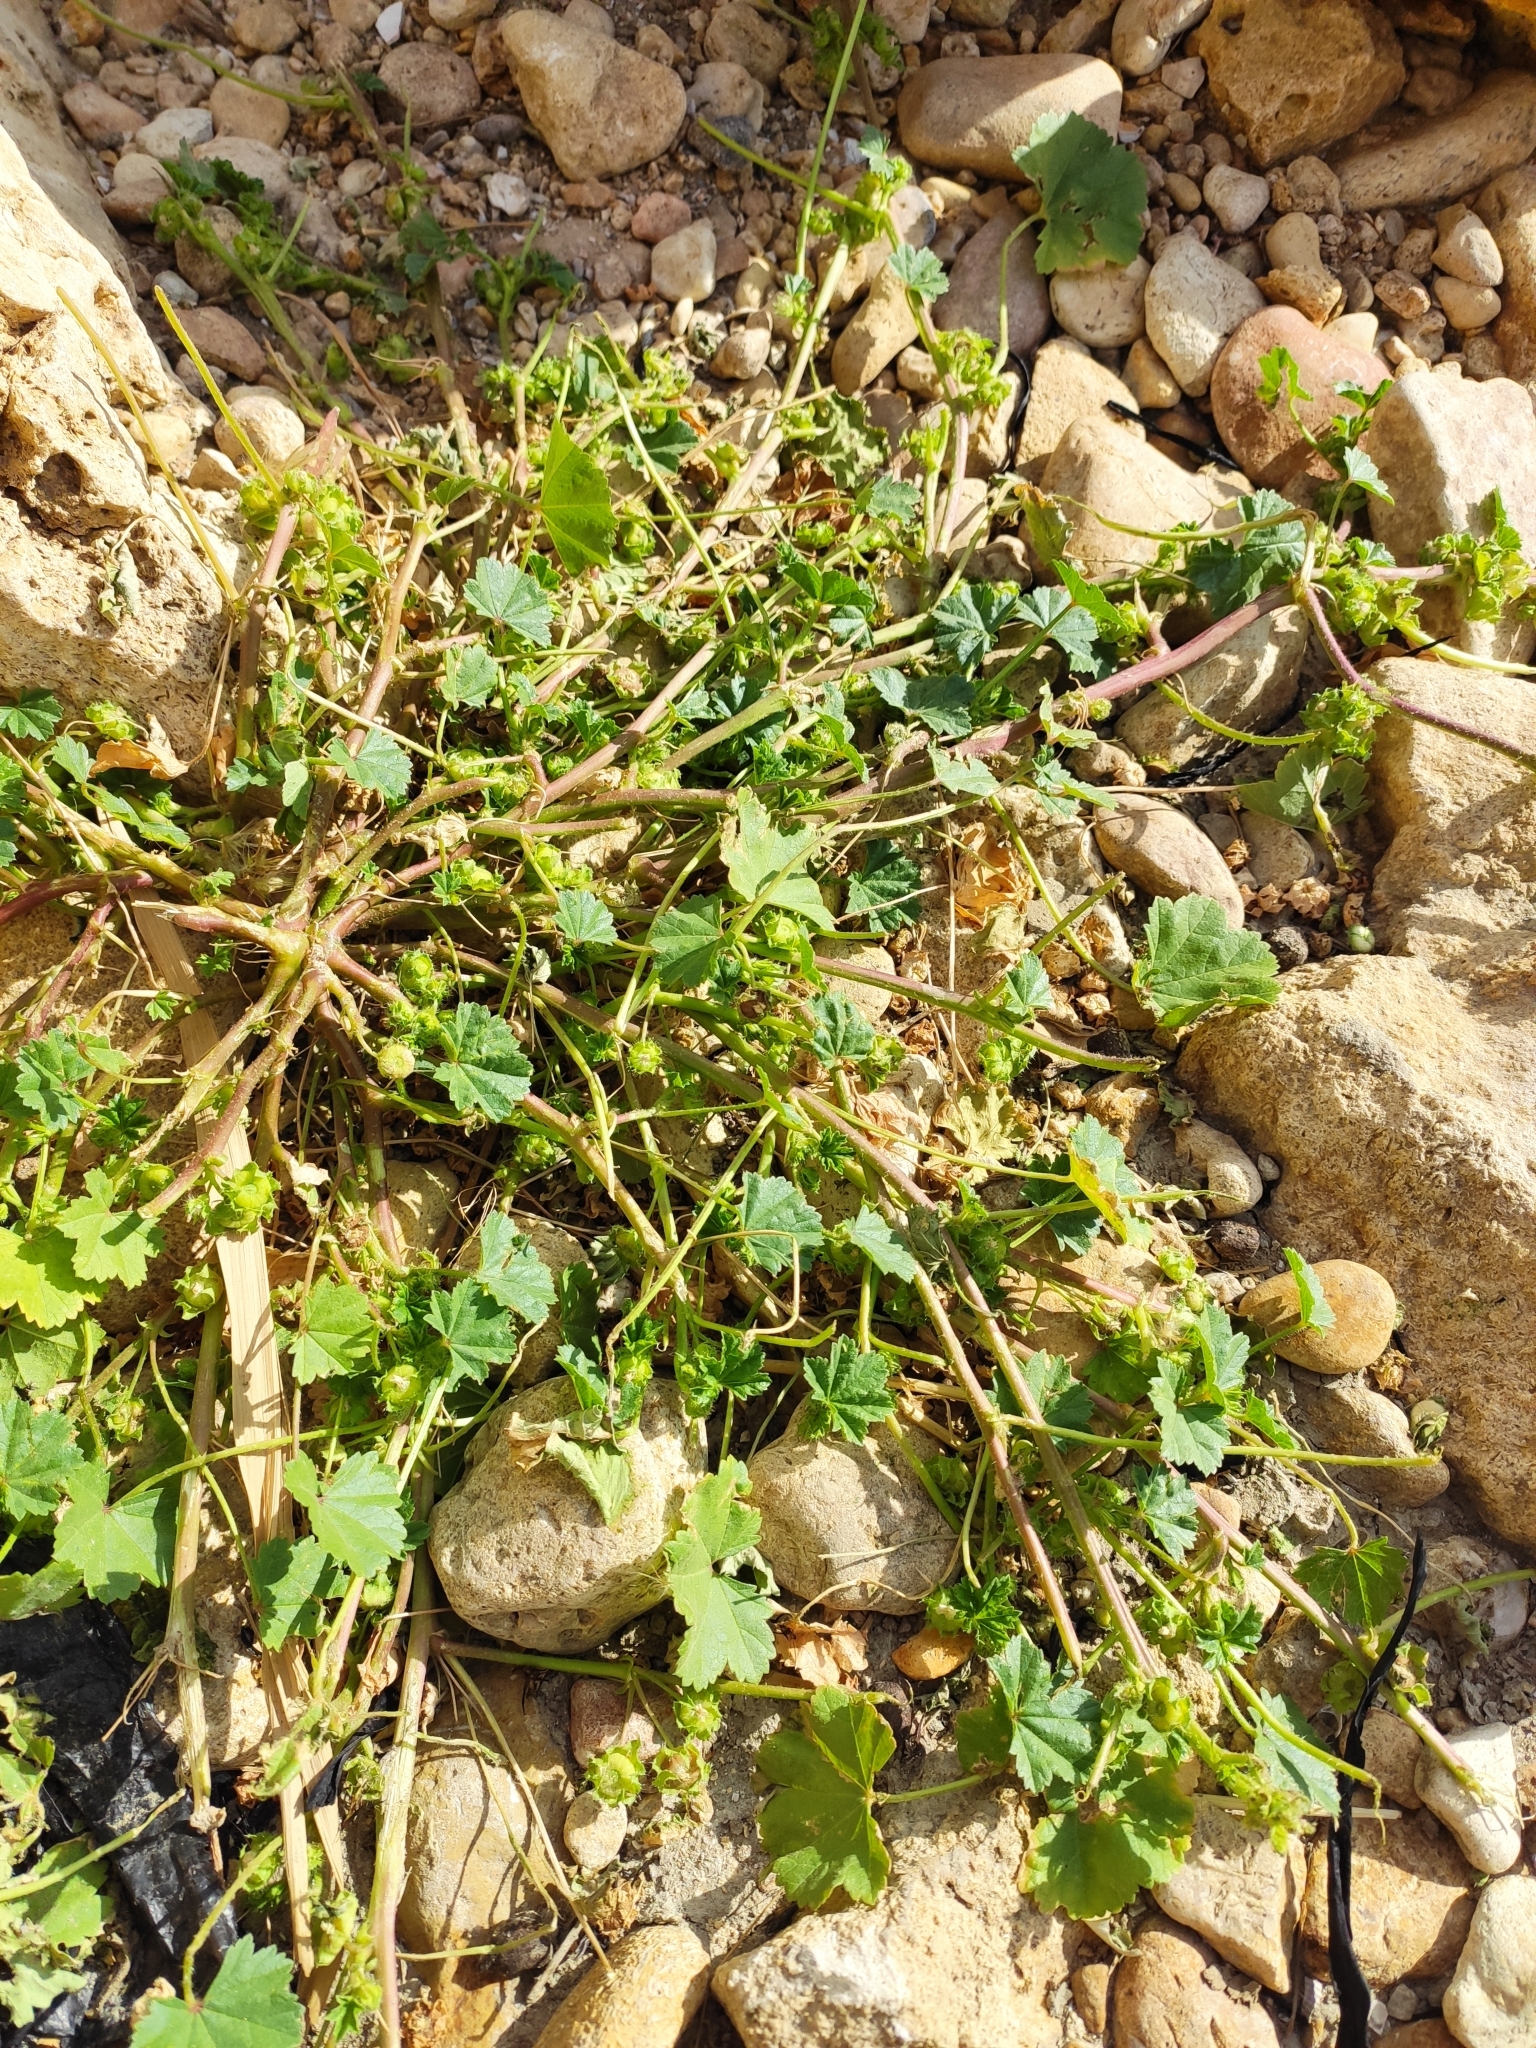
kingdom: Plantae
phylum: Tracheophyta
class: Magnoliopsida
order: Malvales
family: Malvaceae
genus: Malva
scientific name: Malva pusilla
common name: Small mallow
